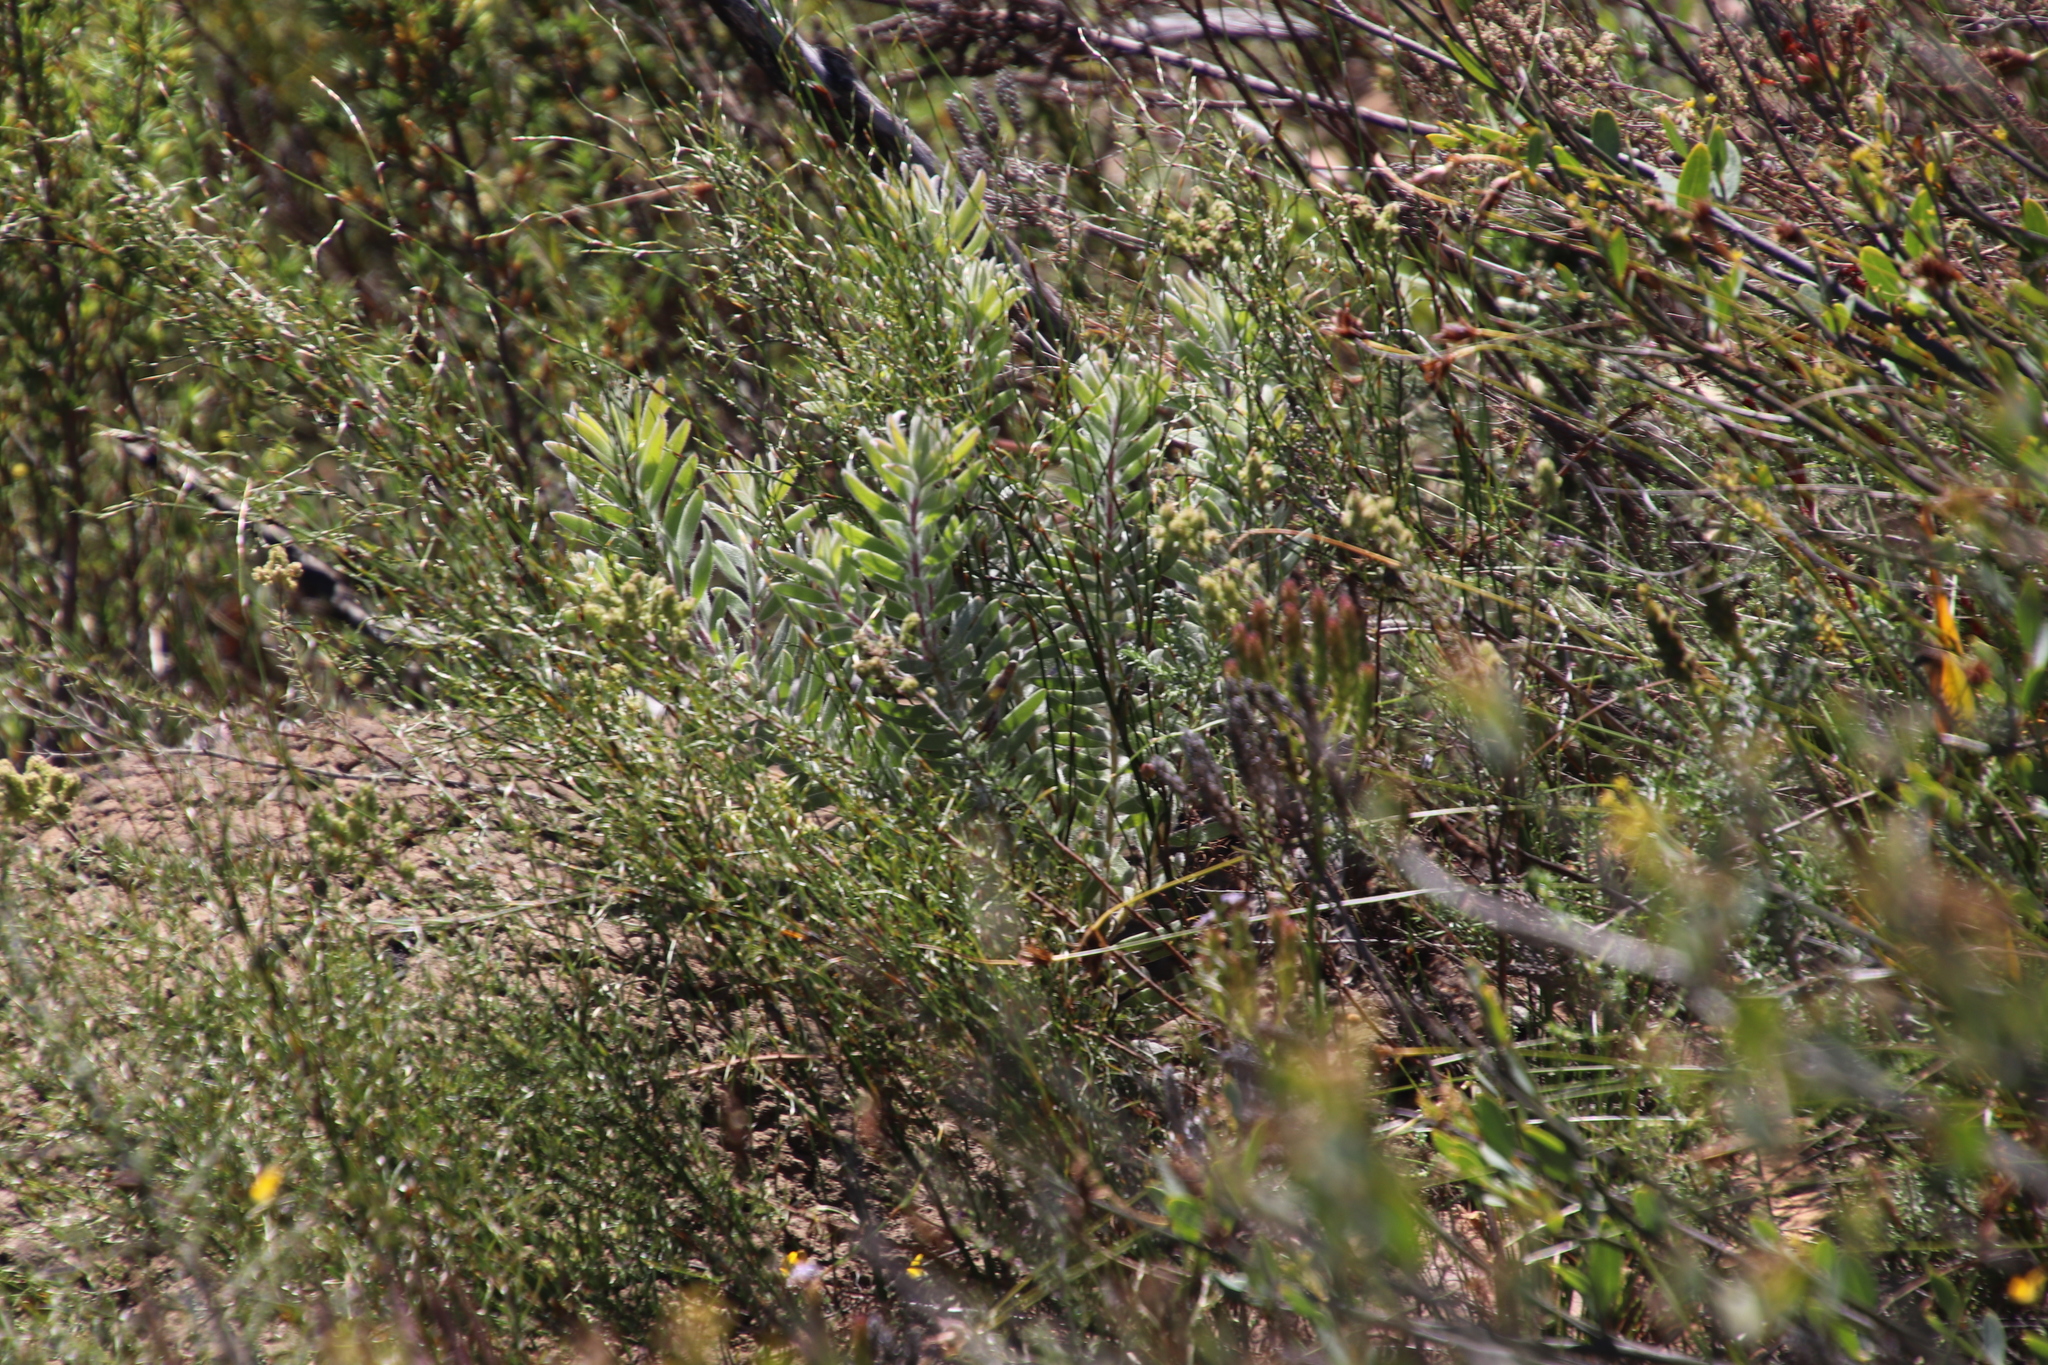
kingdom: Plantae
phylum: Tracheophyta
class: Magnoliopsida
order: Proteales
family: Proteaceae
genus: Leucadendron
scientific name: Leucadendron rubrum
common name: Spinning top
